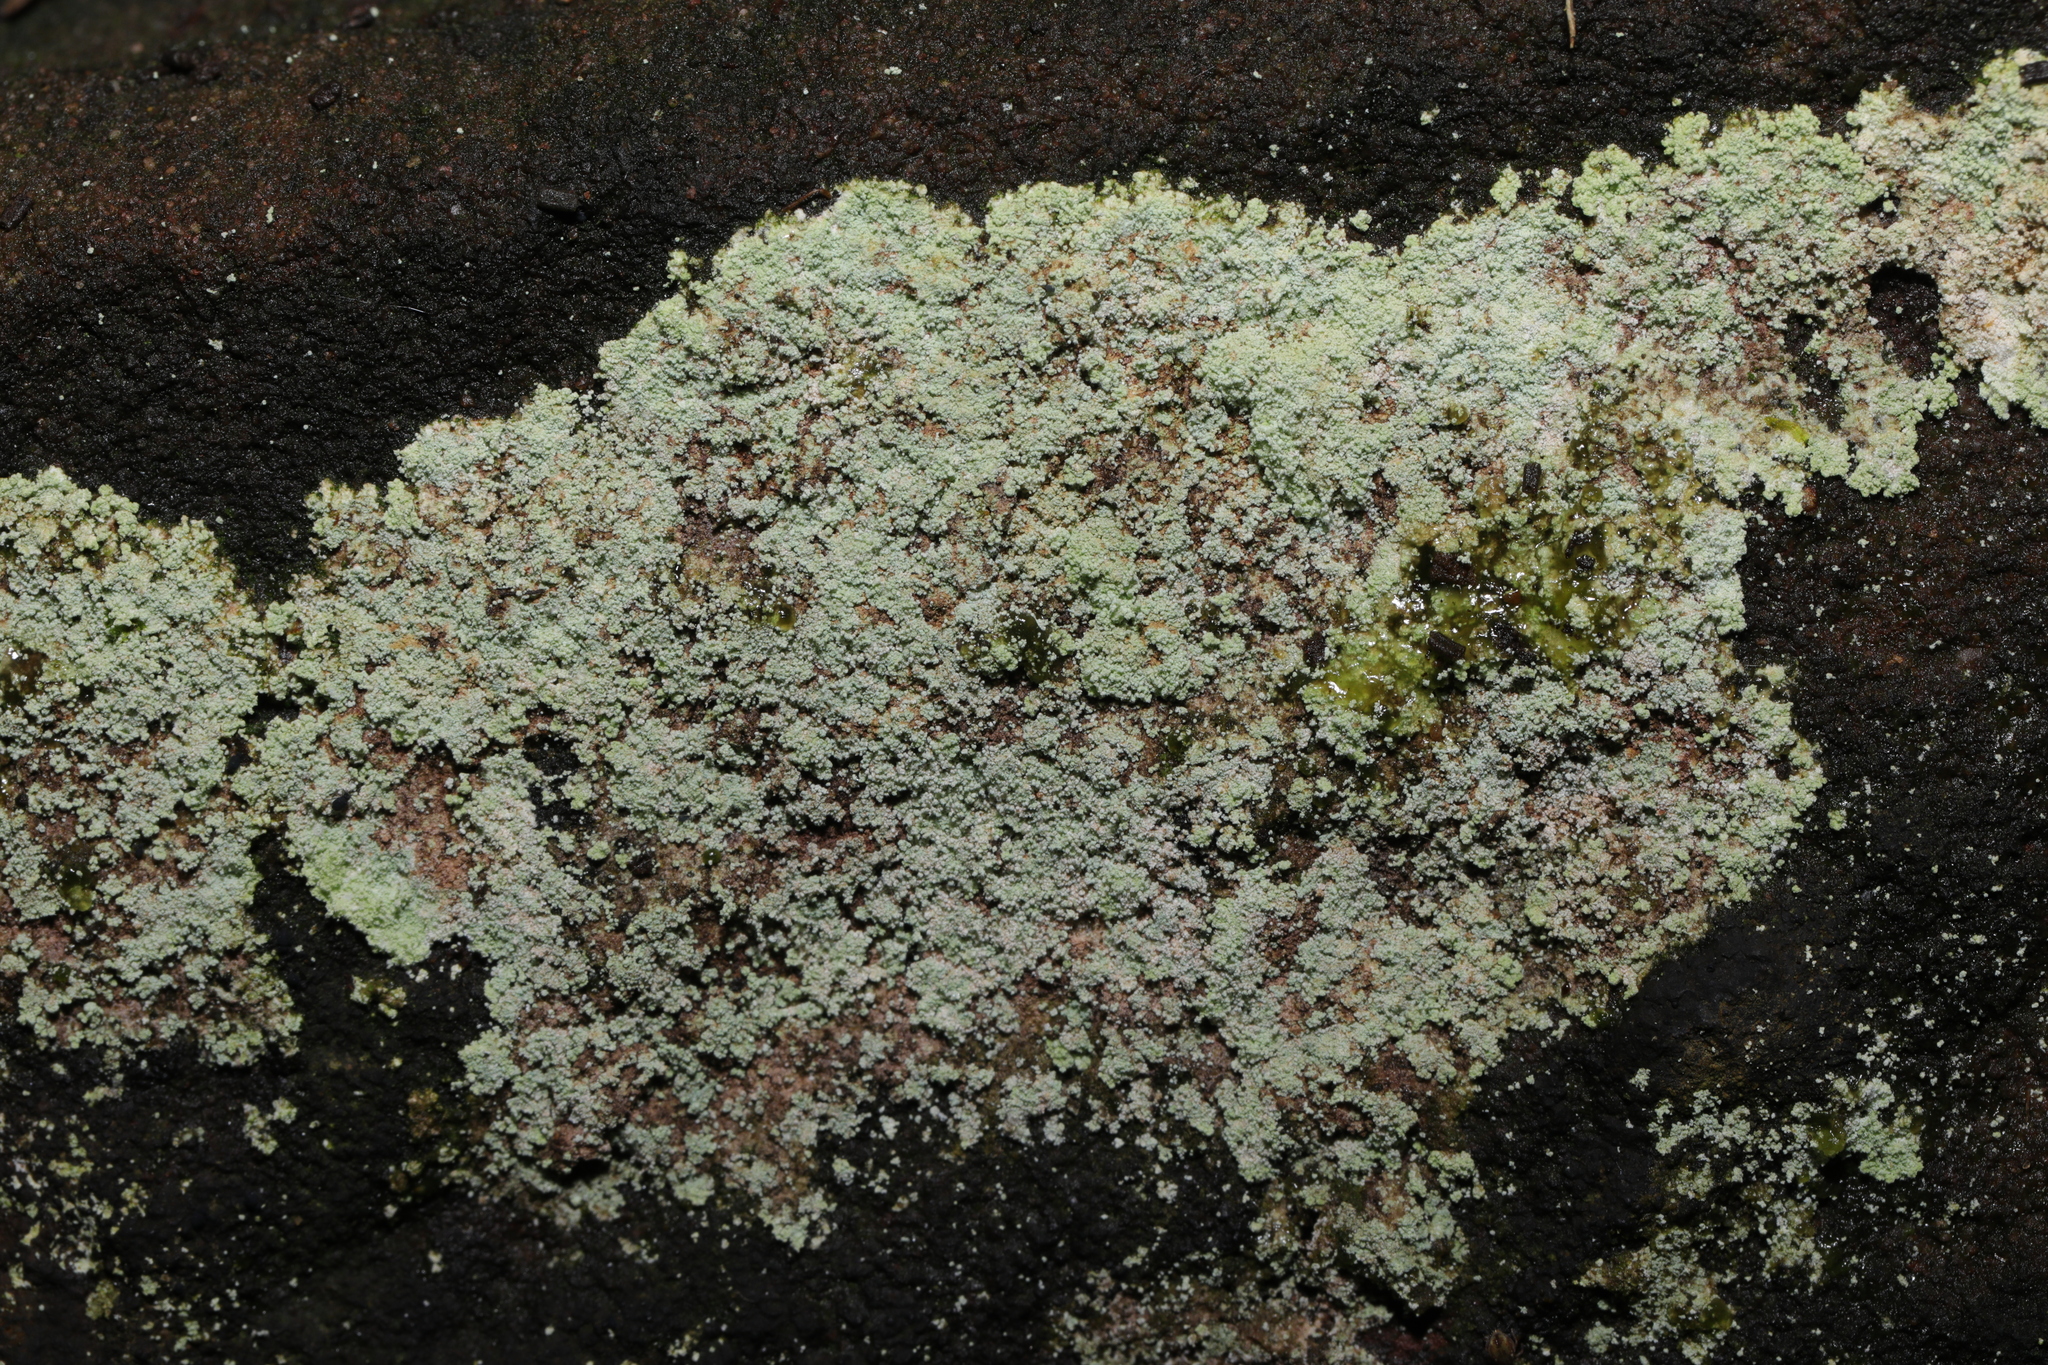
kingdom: Fungi
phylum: Ascomycota
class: Lecanoromycetes
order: Lecanorales
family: Stereocaulaceae
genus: Lepraria
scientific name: Lepraria
